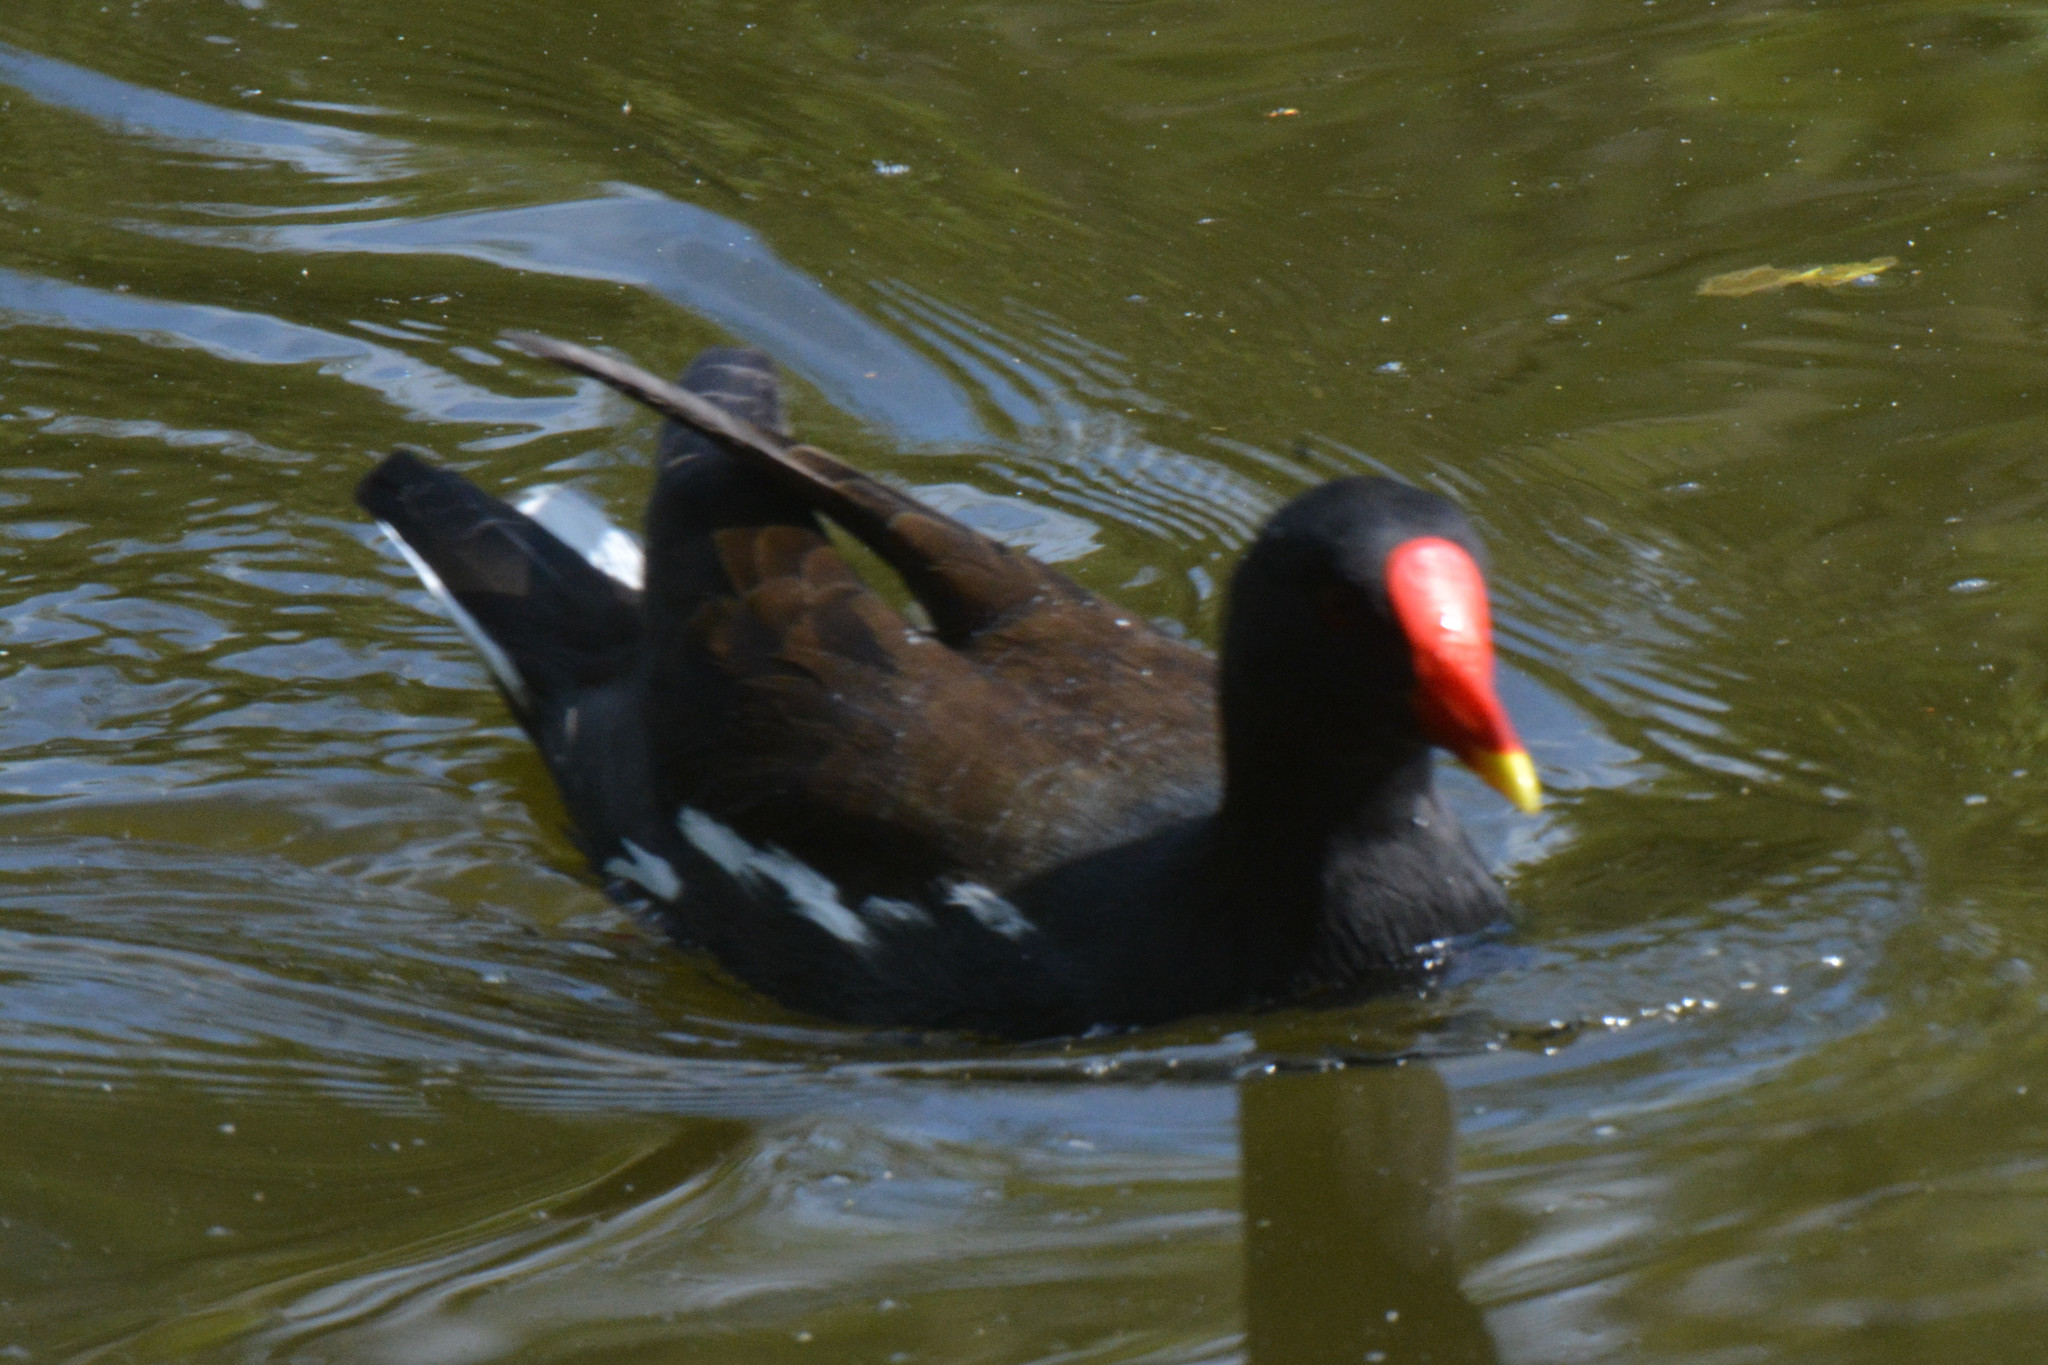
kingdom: Animalia
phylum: Chordata
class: Aves
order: Gruiformes
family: Rallidae
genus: Gallinula
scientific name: Gallinula chloropus
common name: Common moorhen
